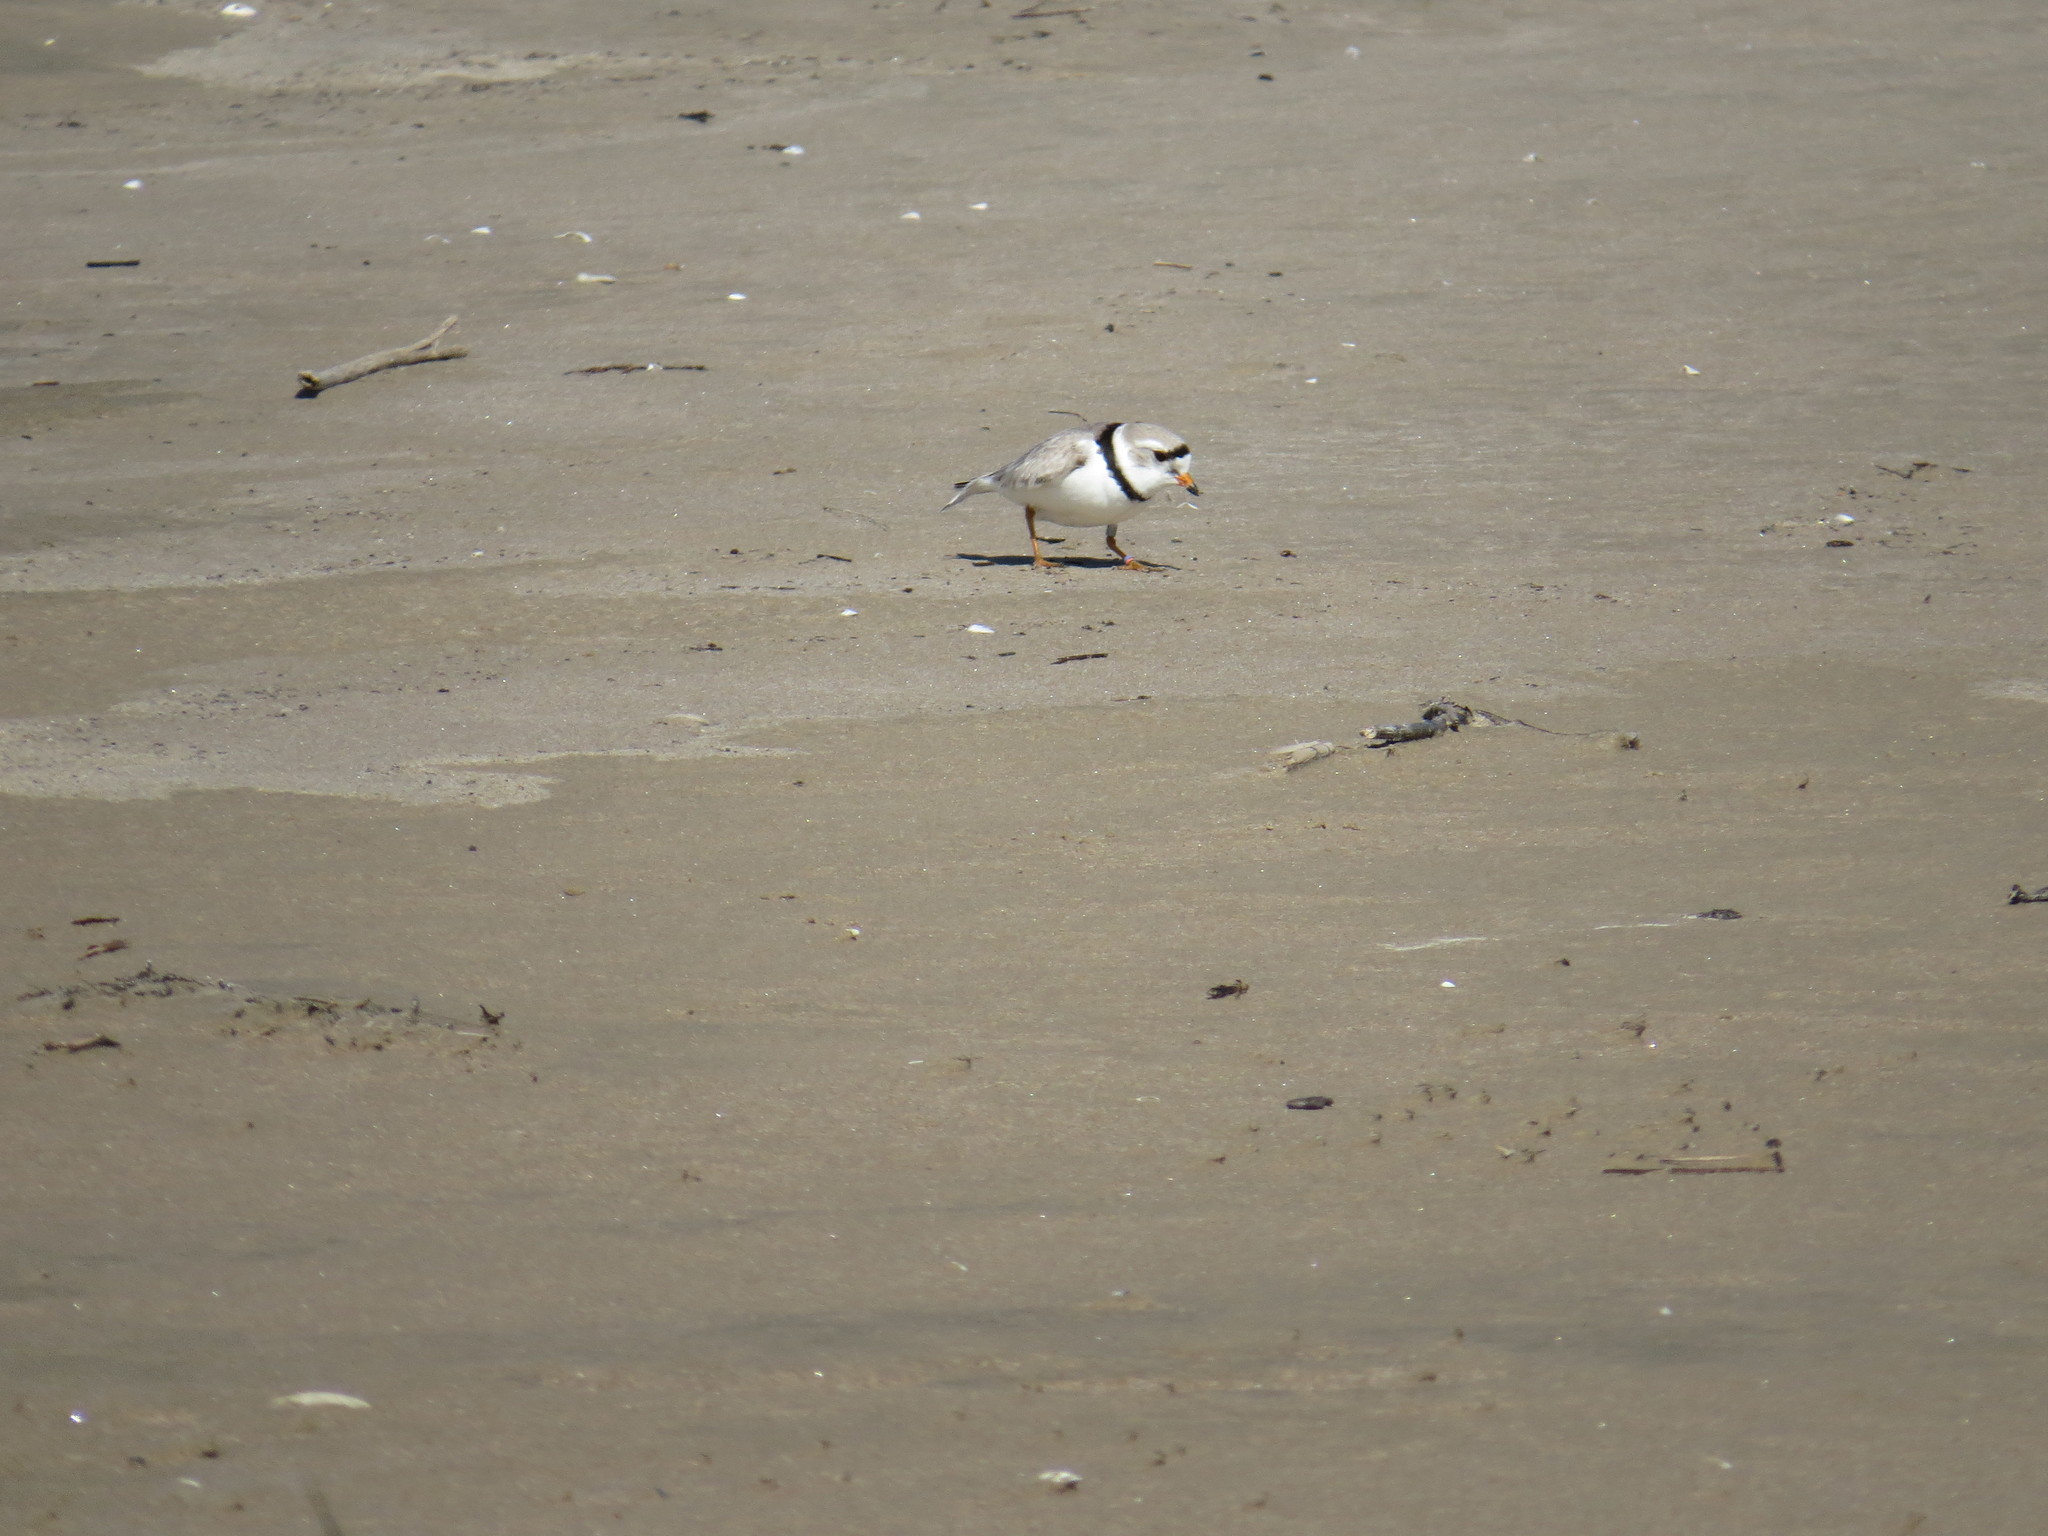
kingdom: Animalia
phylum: Chordata
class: Aves
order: Charadriiformes
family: Charadriidae
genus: Charadrius
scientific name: Charadrius melodus
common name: Piping plover
